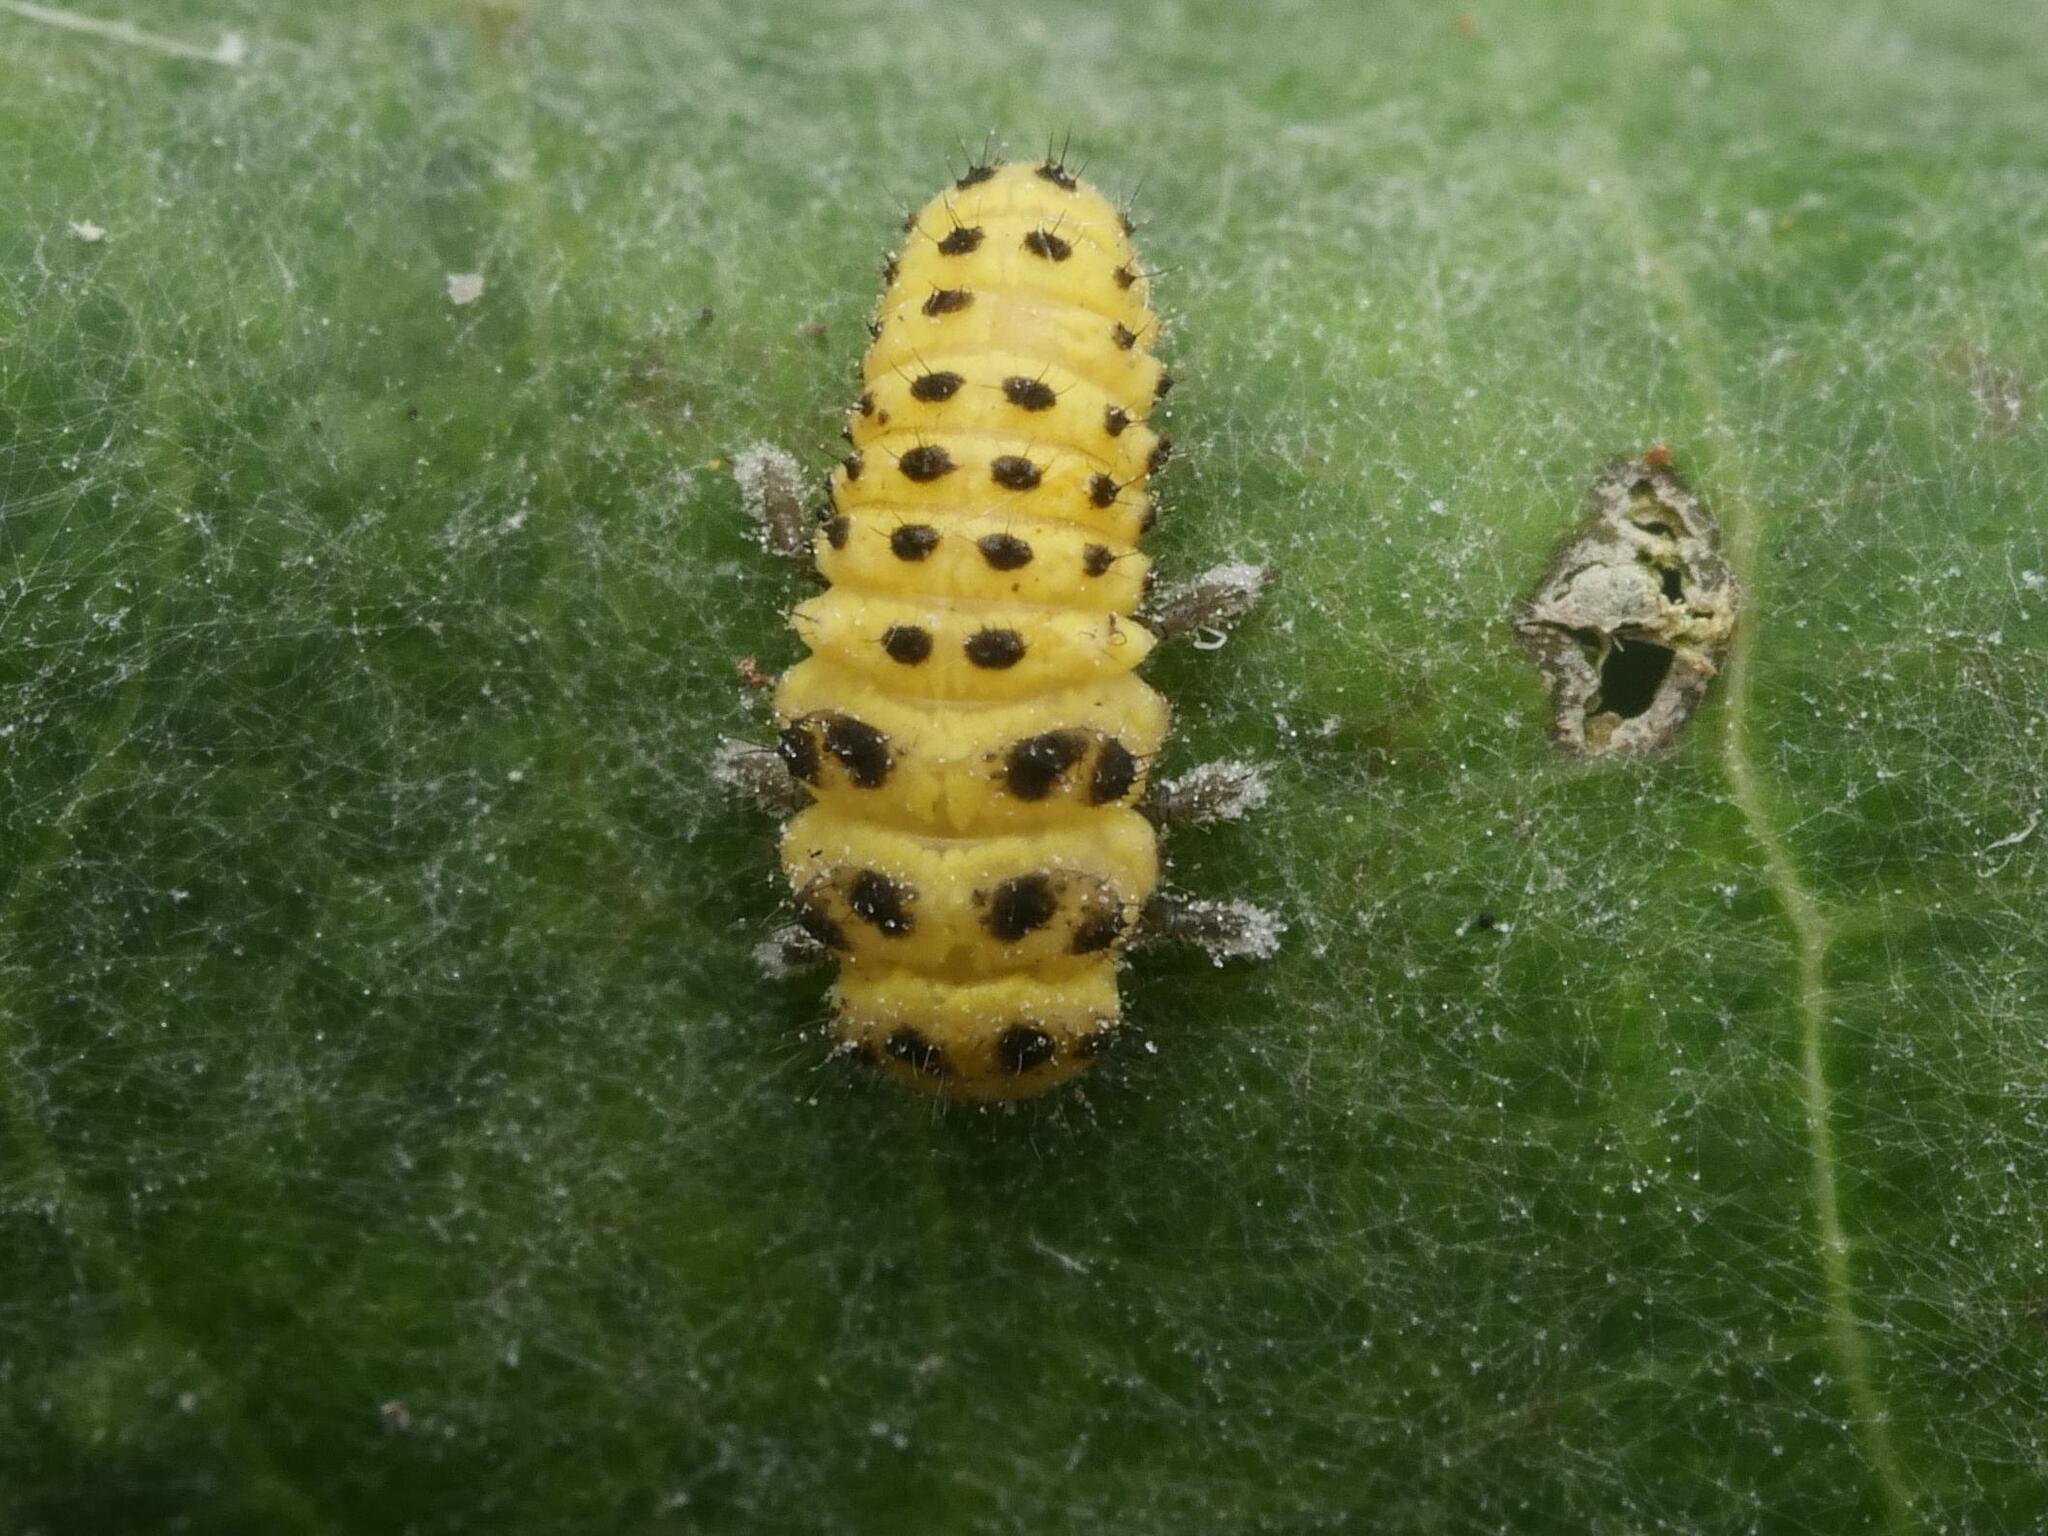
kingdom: Animalia
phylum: Arthropoda
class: Insecta
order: Coleoptera
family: Coccinellidae
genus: Psyllobora
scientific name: Psyllobora vigintiduopunctata
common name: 22-spot ladybird
